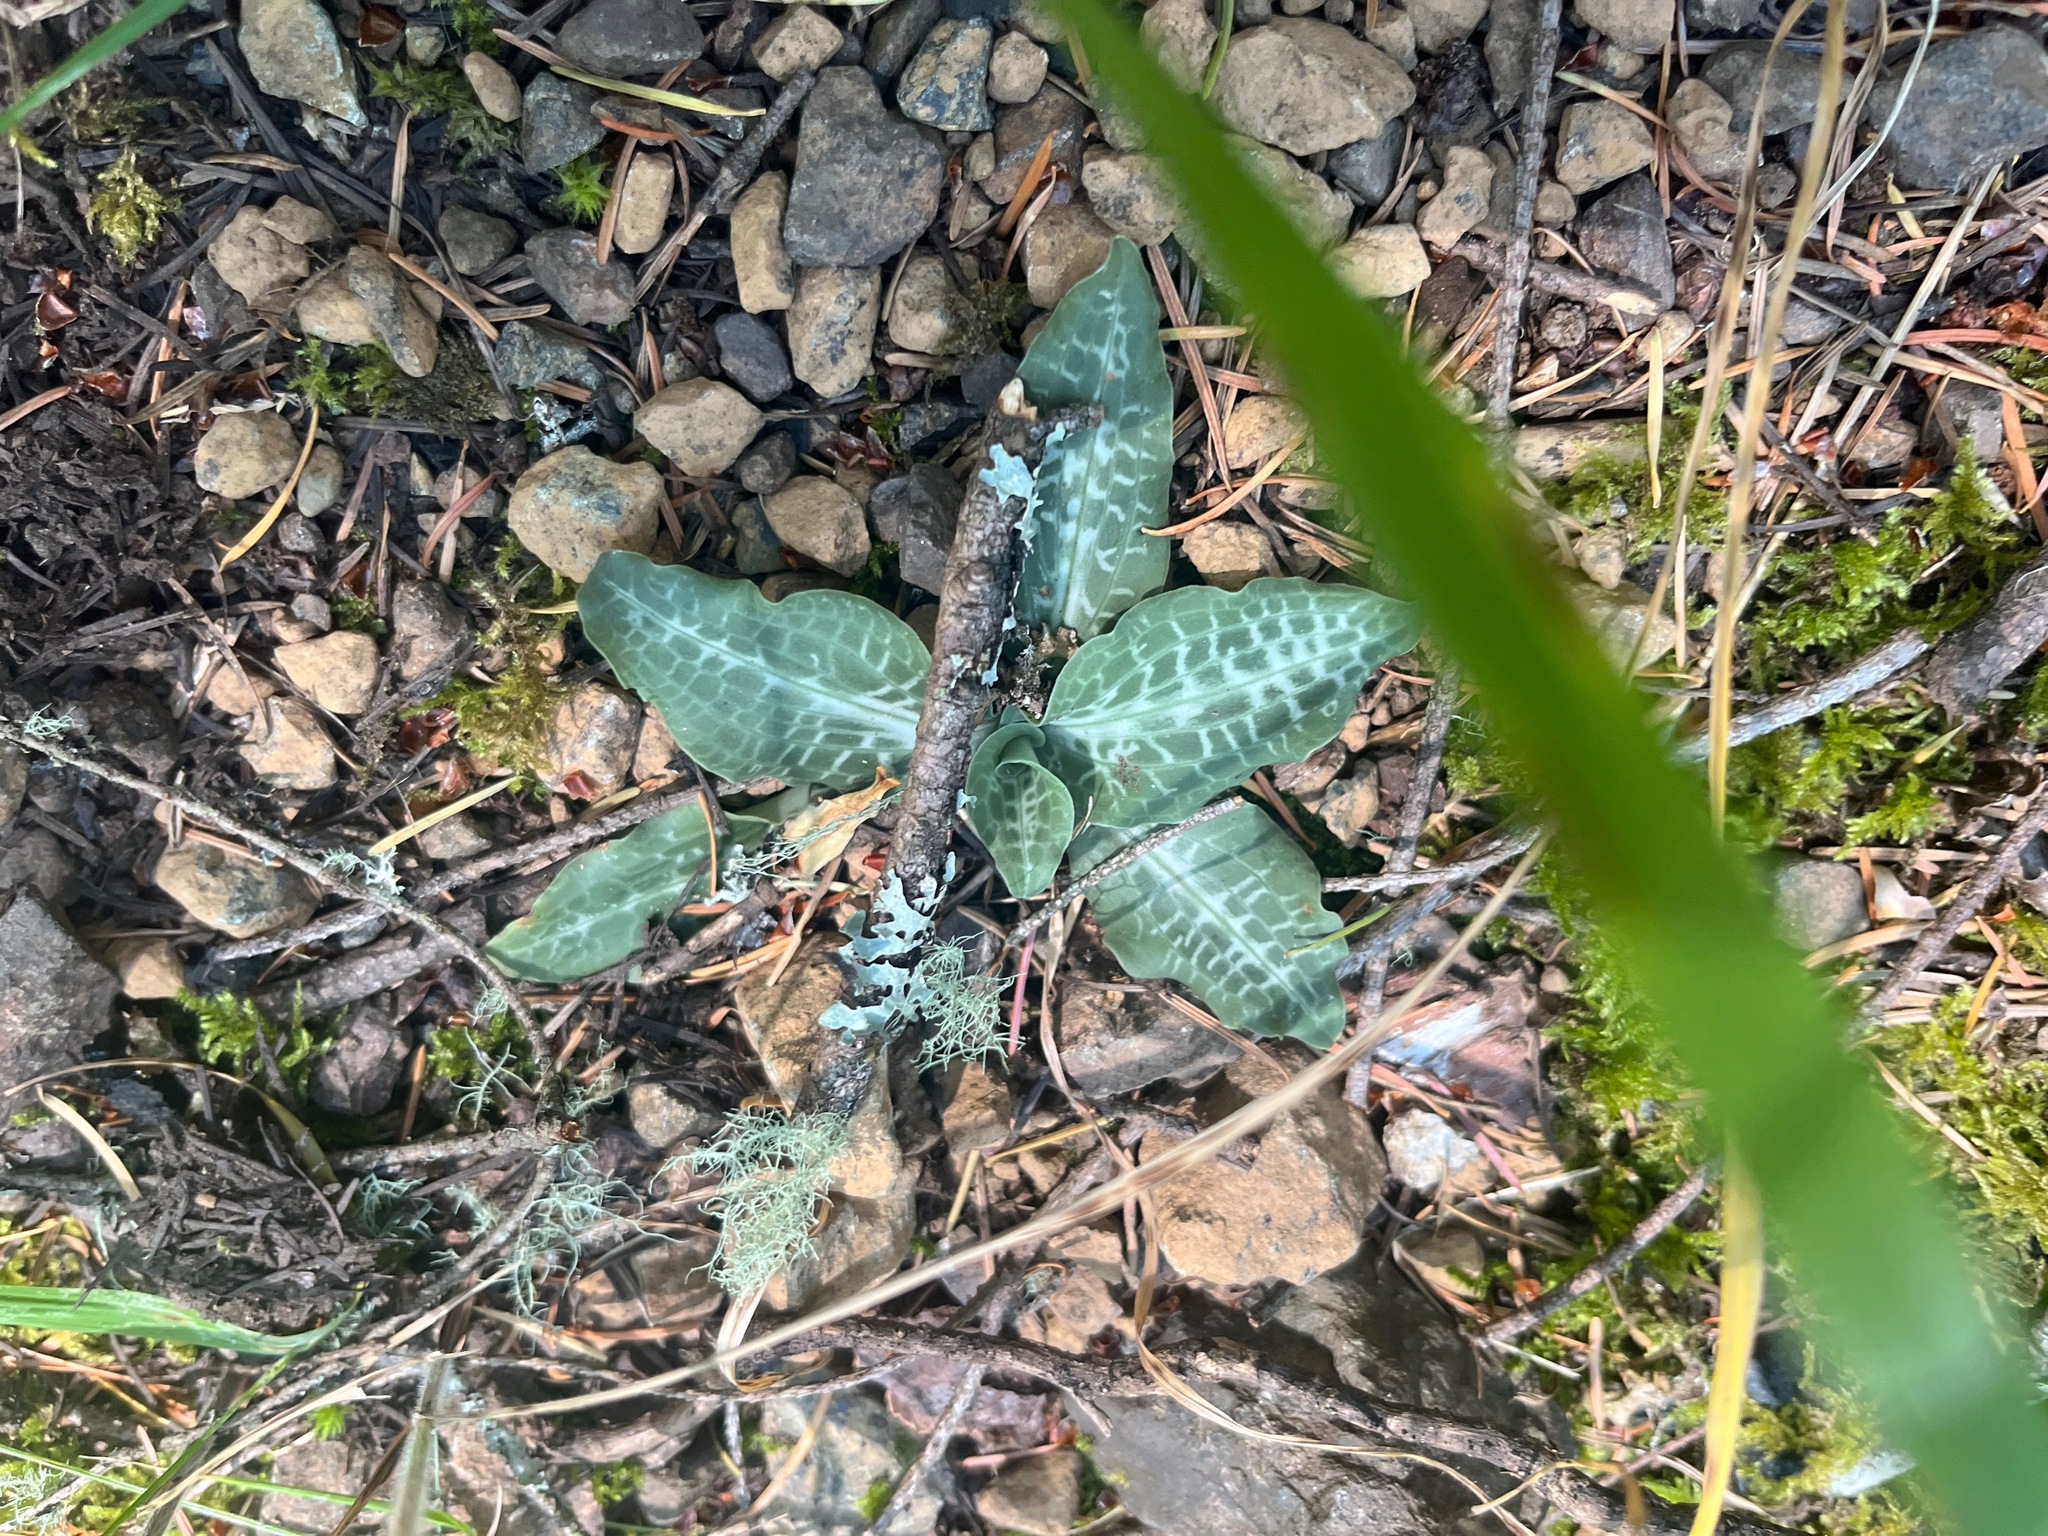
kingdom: Plantae
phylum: Tracheophyta
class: Liliopsida
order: Asparagales
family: Orchidaceae
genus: Goodyera
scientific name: Goodyera oblongifolia
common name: Giant rattlesnake-plantain
